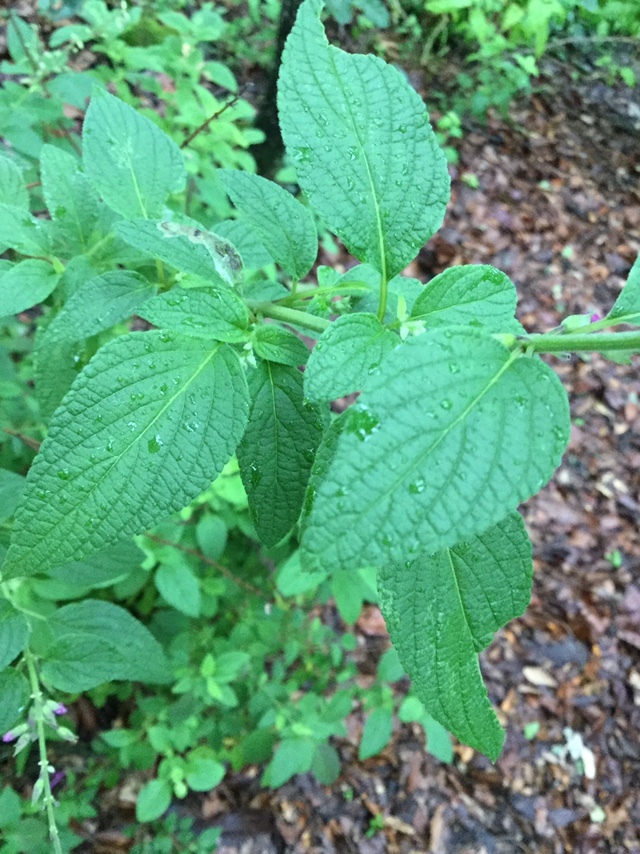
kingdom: Plantae
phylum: Tracheophyta
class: Magnoliopsida
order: Lamiales
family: Lamiaceae
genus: Salvia
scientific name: Salvia curviflora
